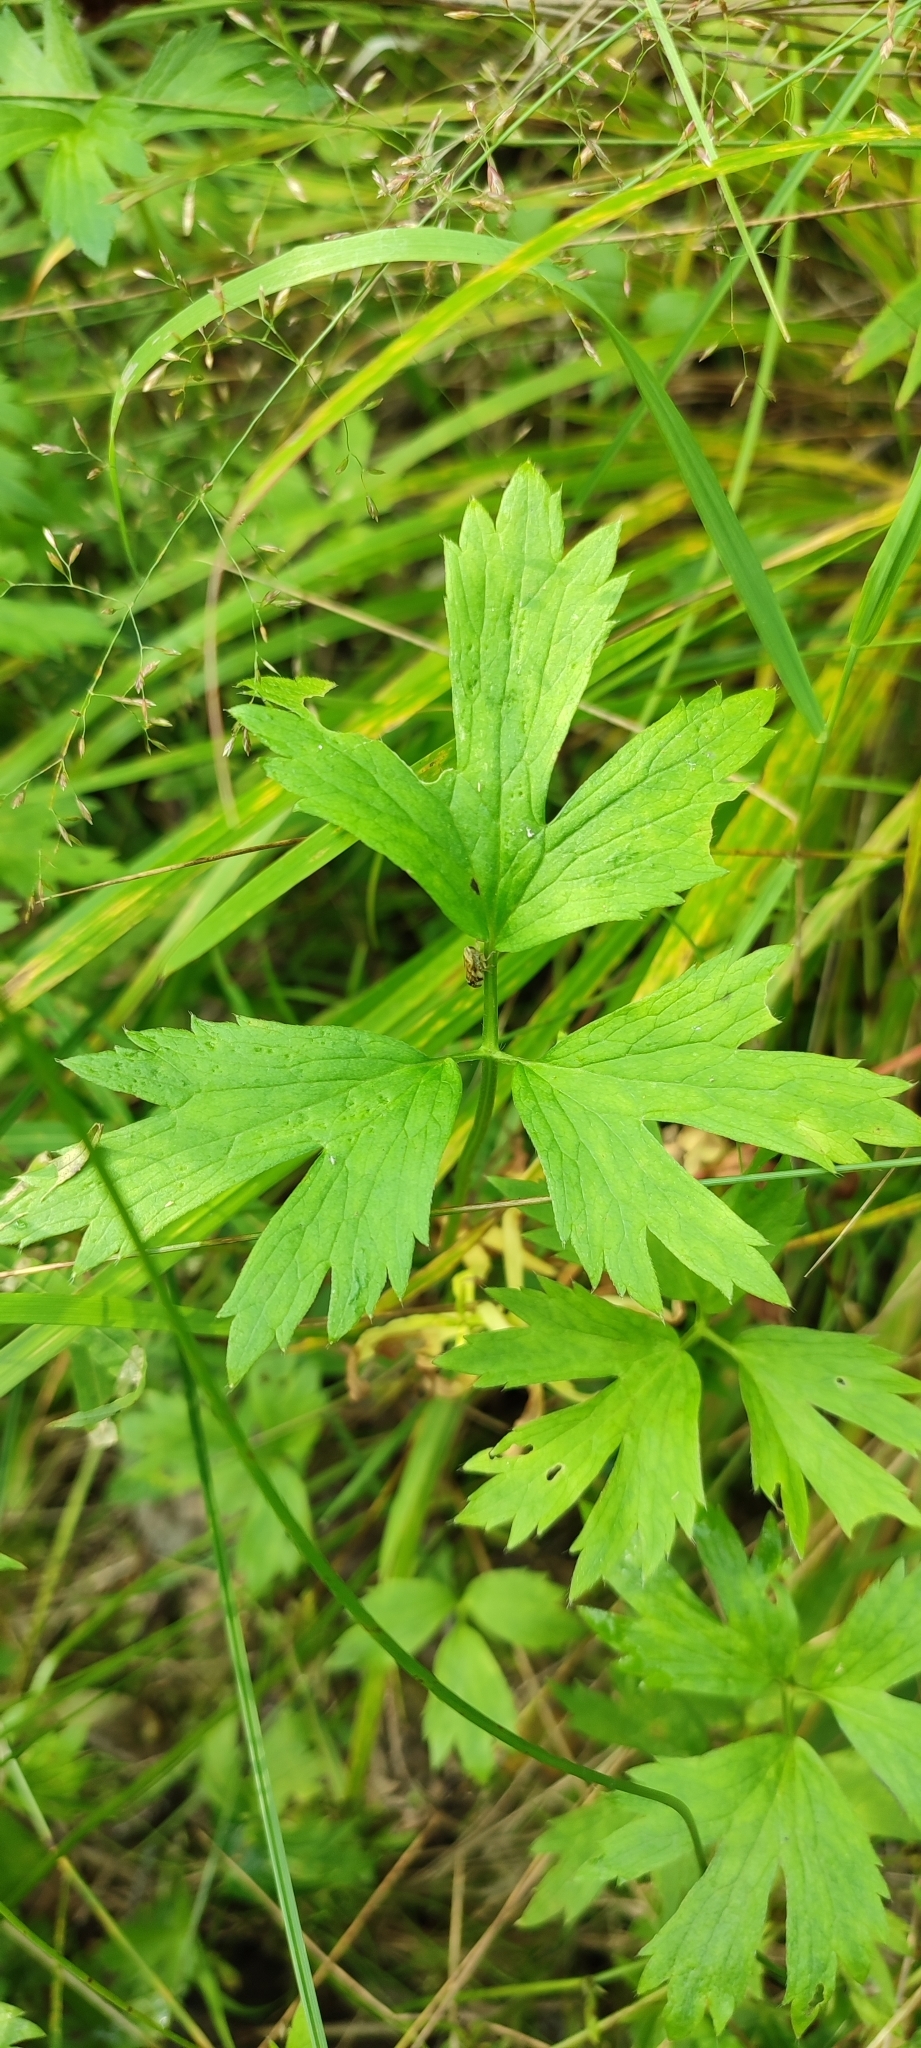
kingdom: Plantae
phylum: Tracheophyta
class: Magnoliopsida
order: Ranunculales
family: Ranunculaceae
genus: Ranunculus
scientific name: Ranunculus repens
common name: Creeping buttercup
